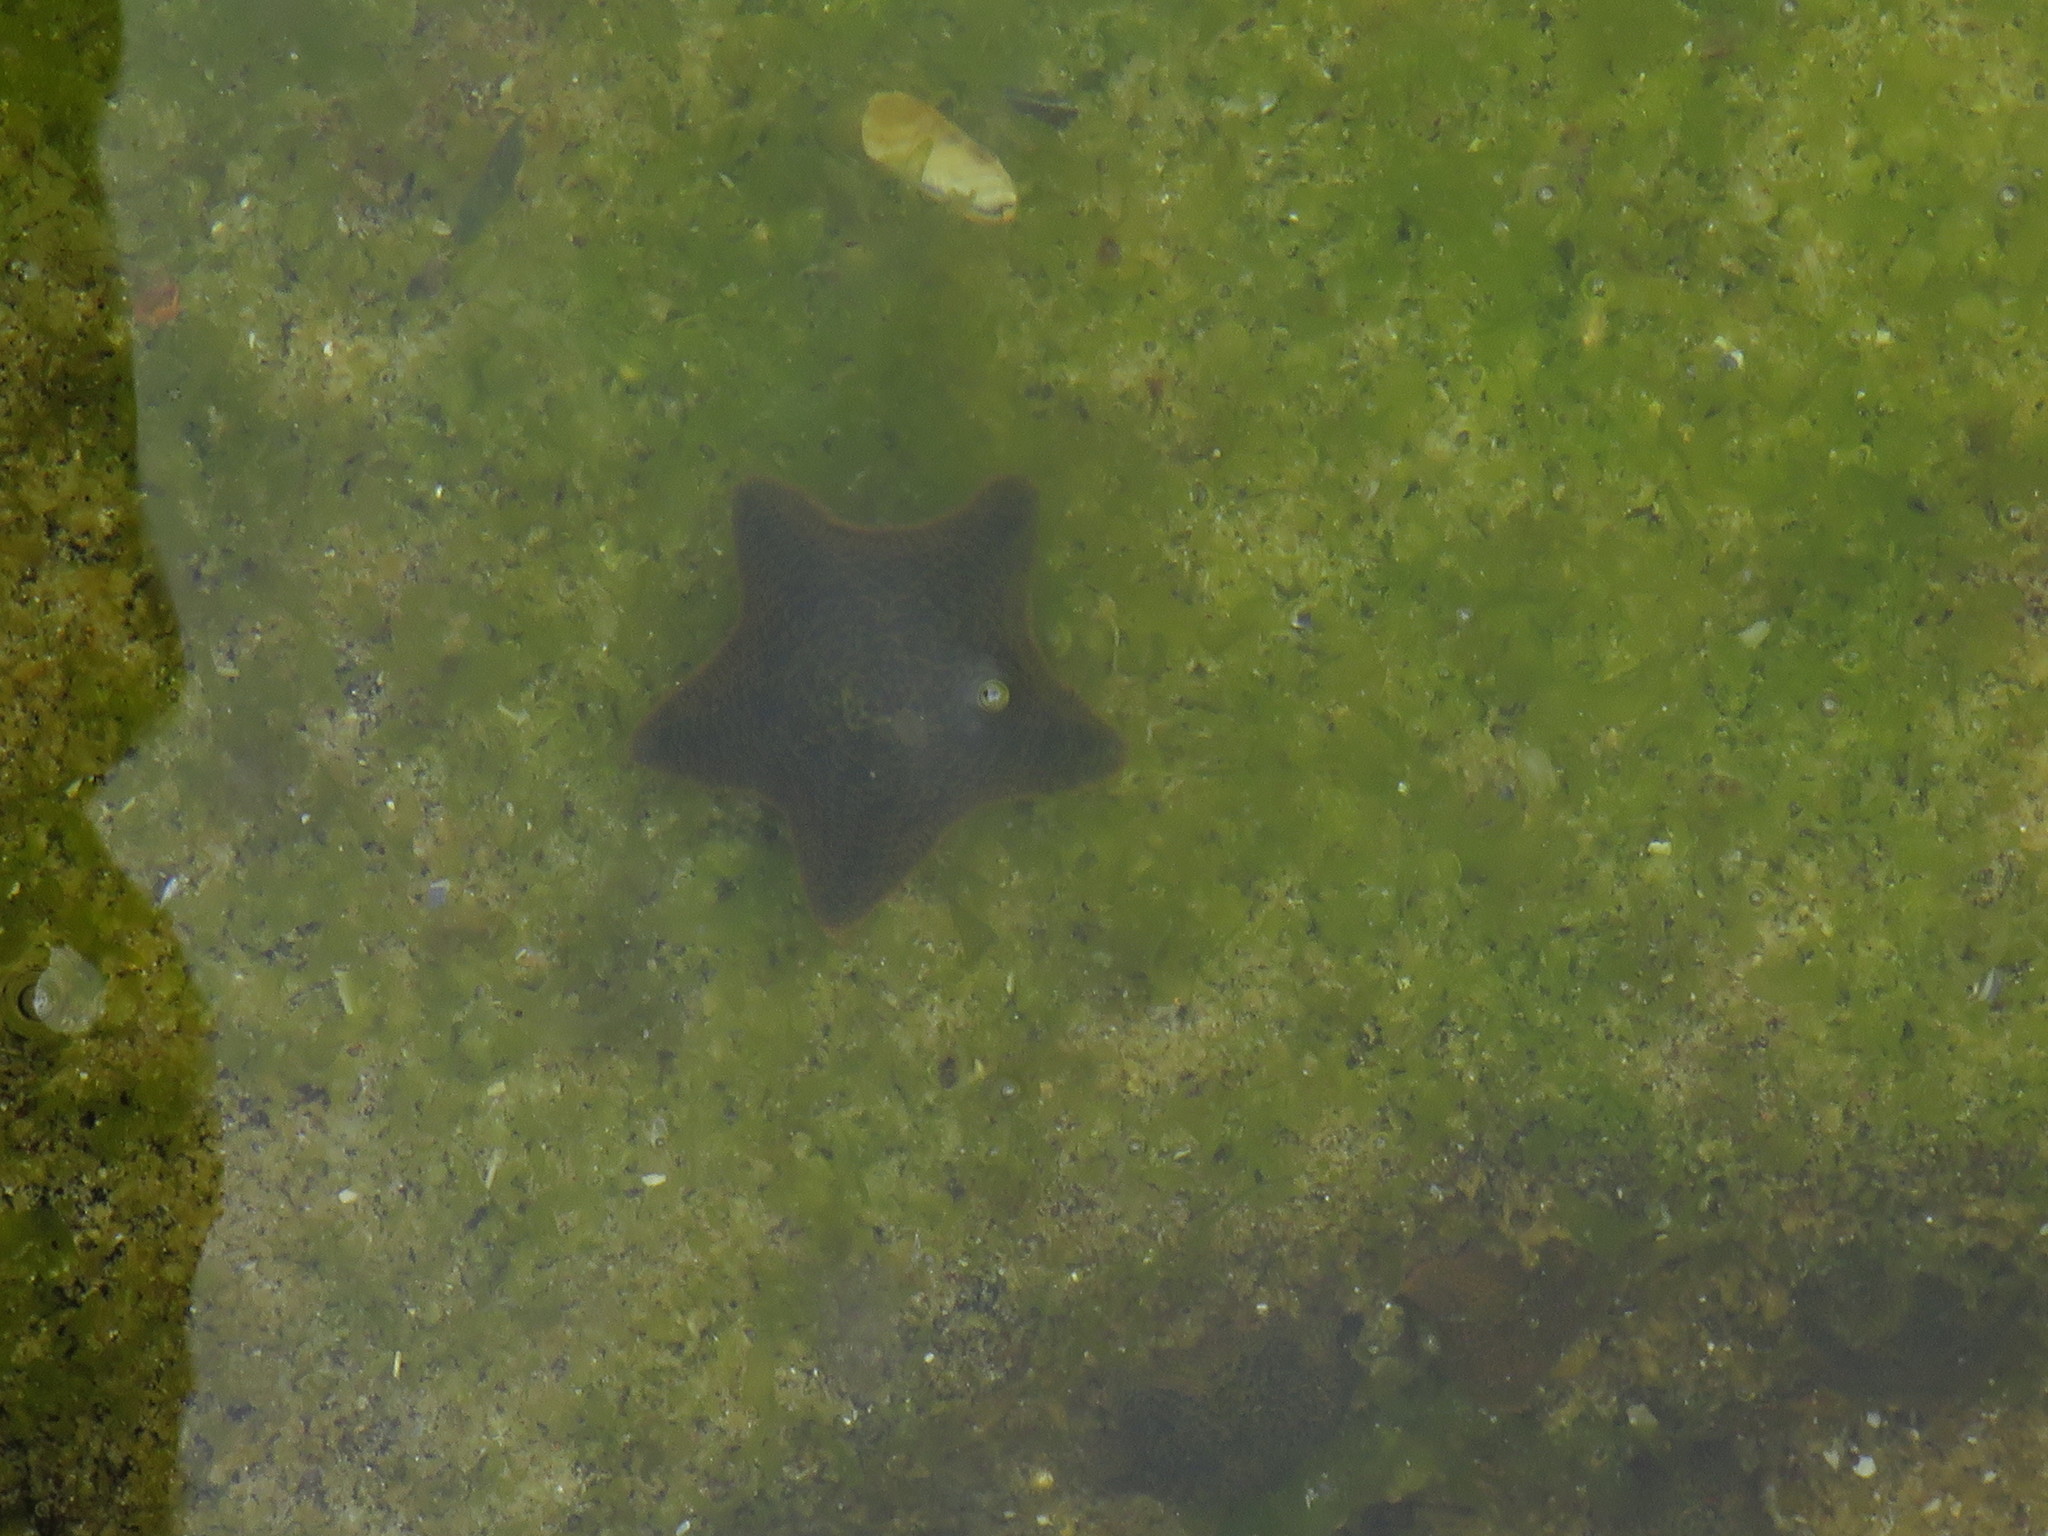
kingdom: Animalia
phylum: Echinodermata
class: Asteroidea
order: Valvatida
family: Asterinidae
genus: Parvulastra
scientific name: Parvulastra exigua
